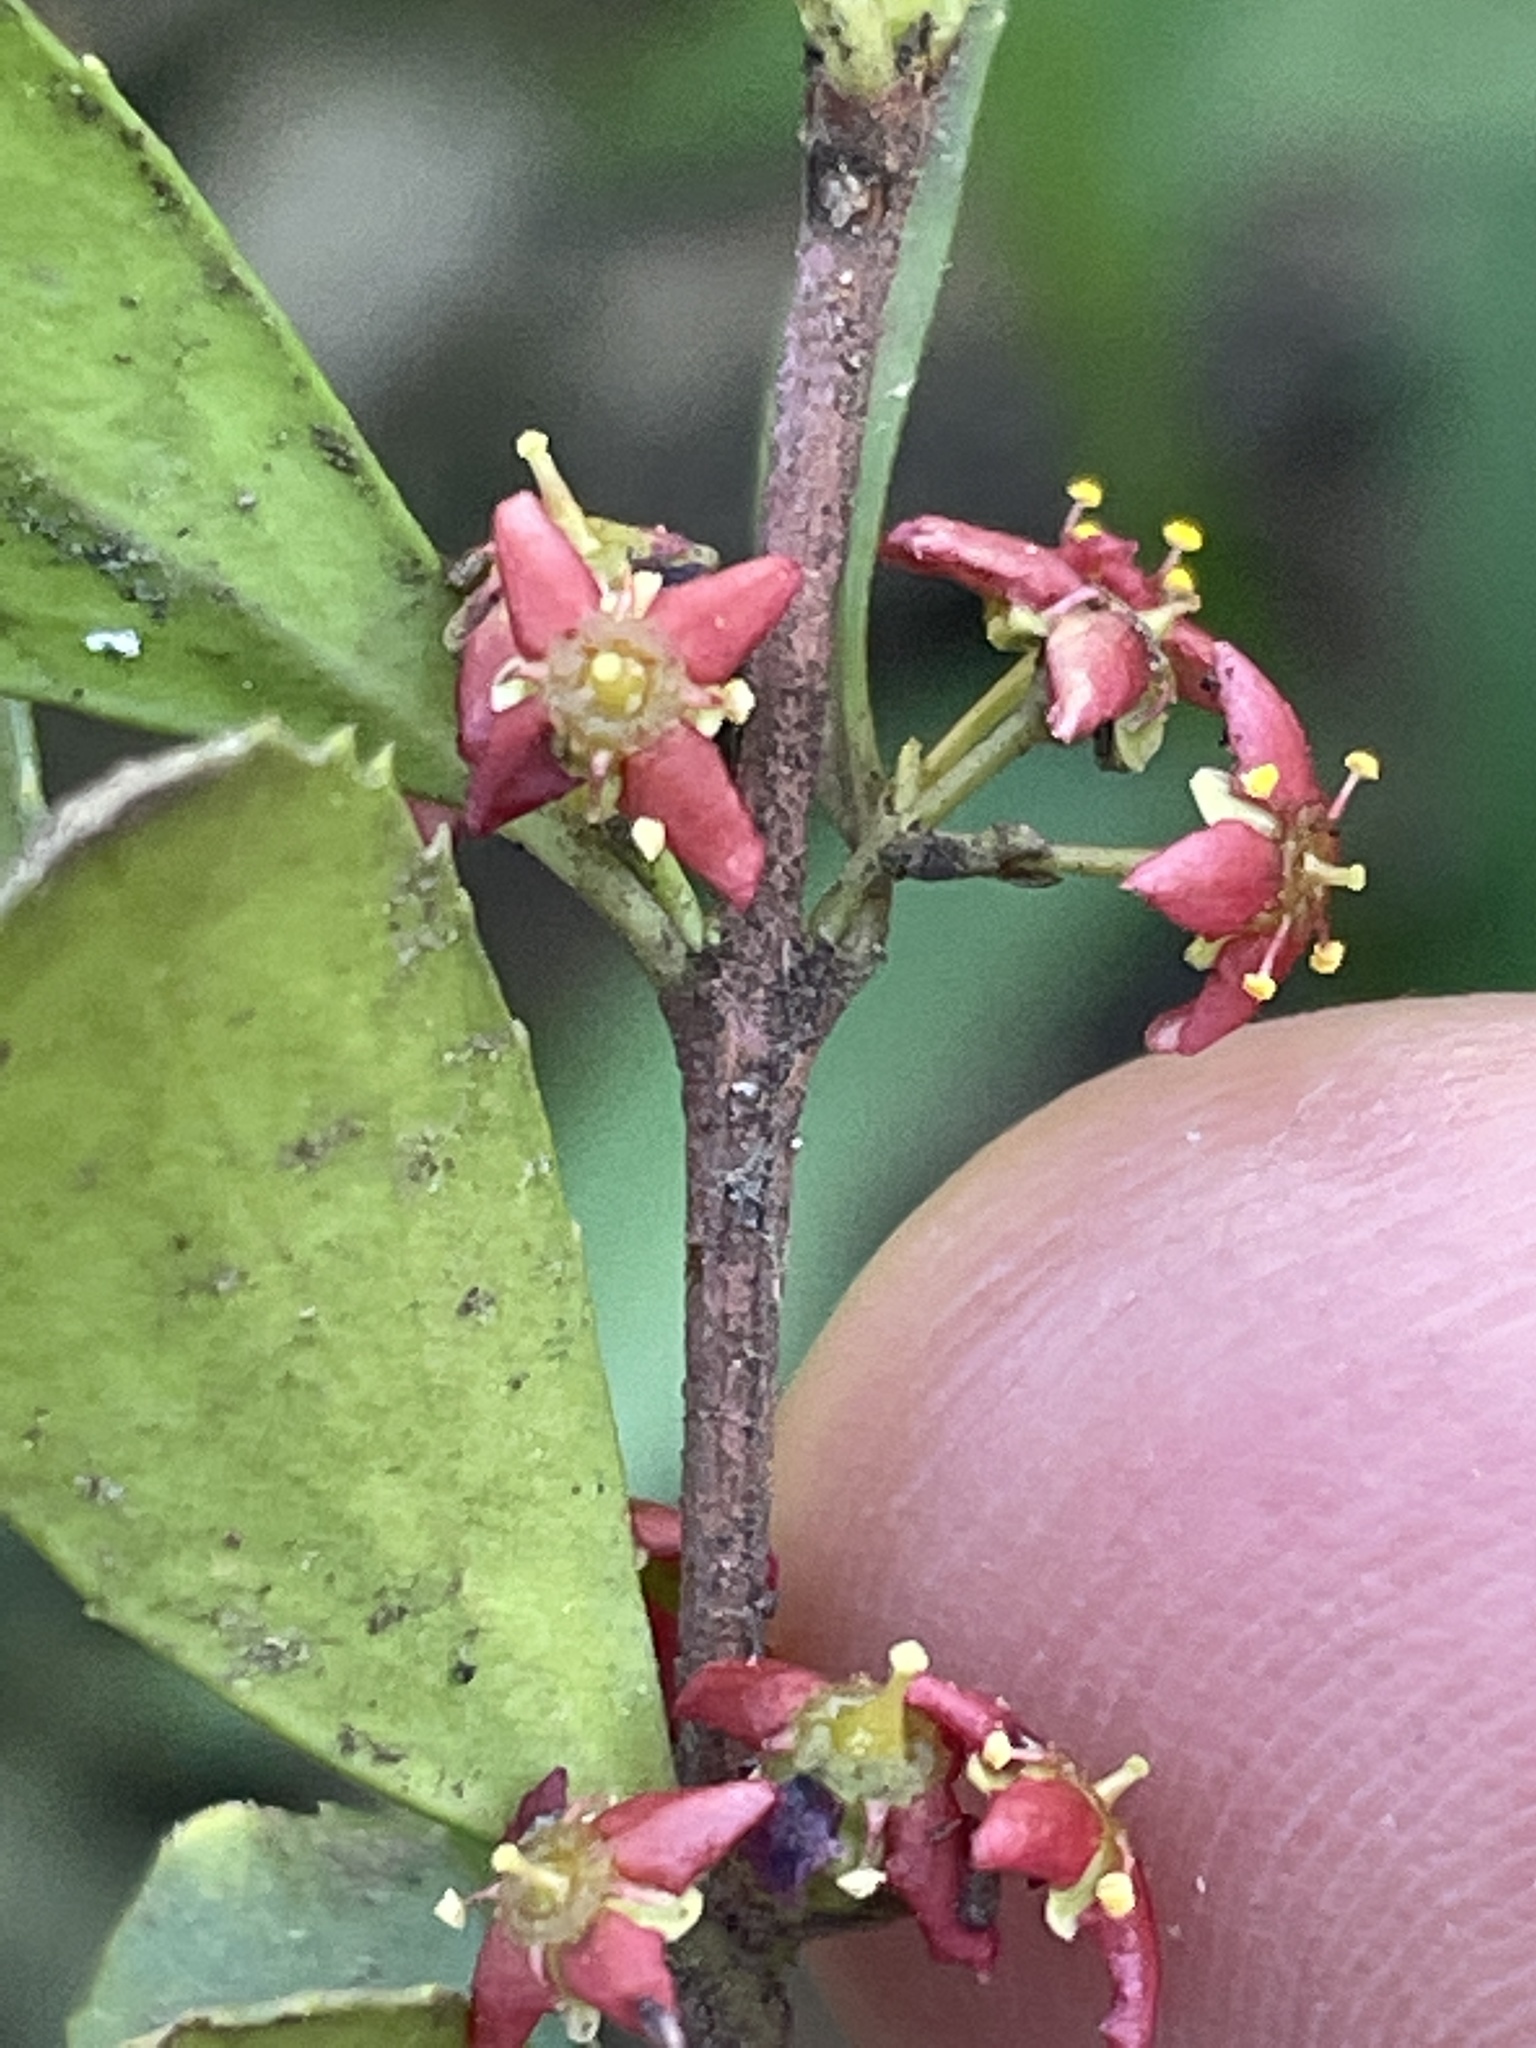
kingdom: Plantae
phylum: Tracheophyta
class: Magnoliopsida
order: Celastrales
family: Celastraceae
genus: Paxistima
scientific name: Paxistima myrsinites
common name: Mountain-lover
